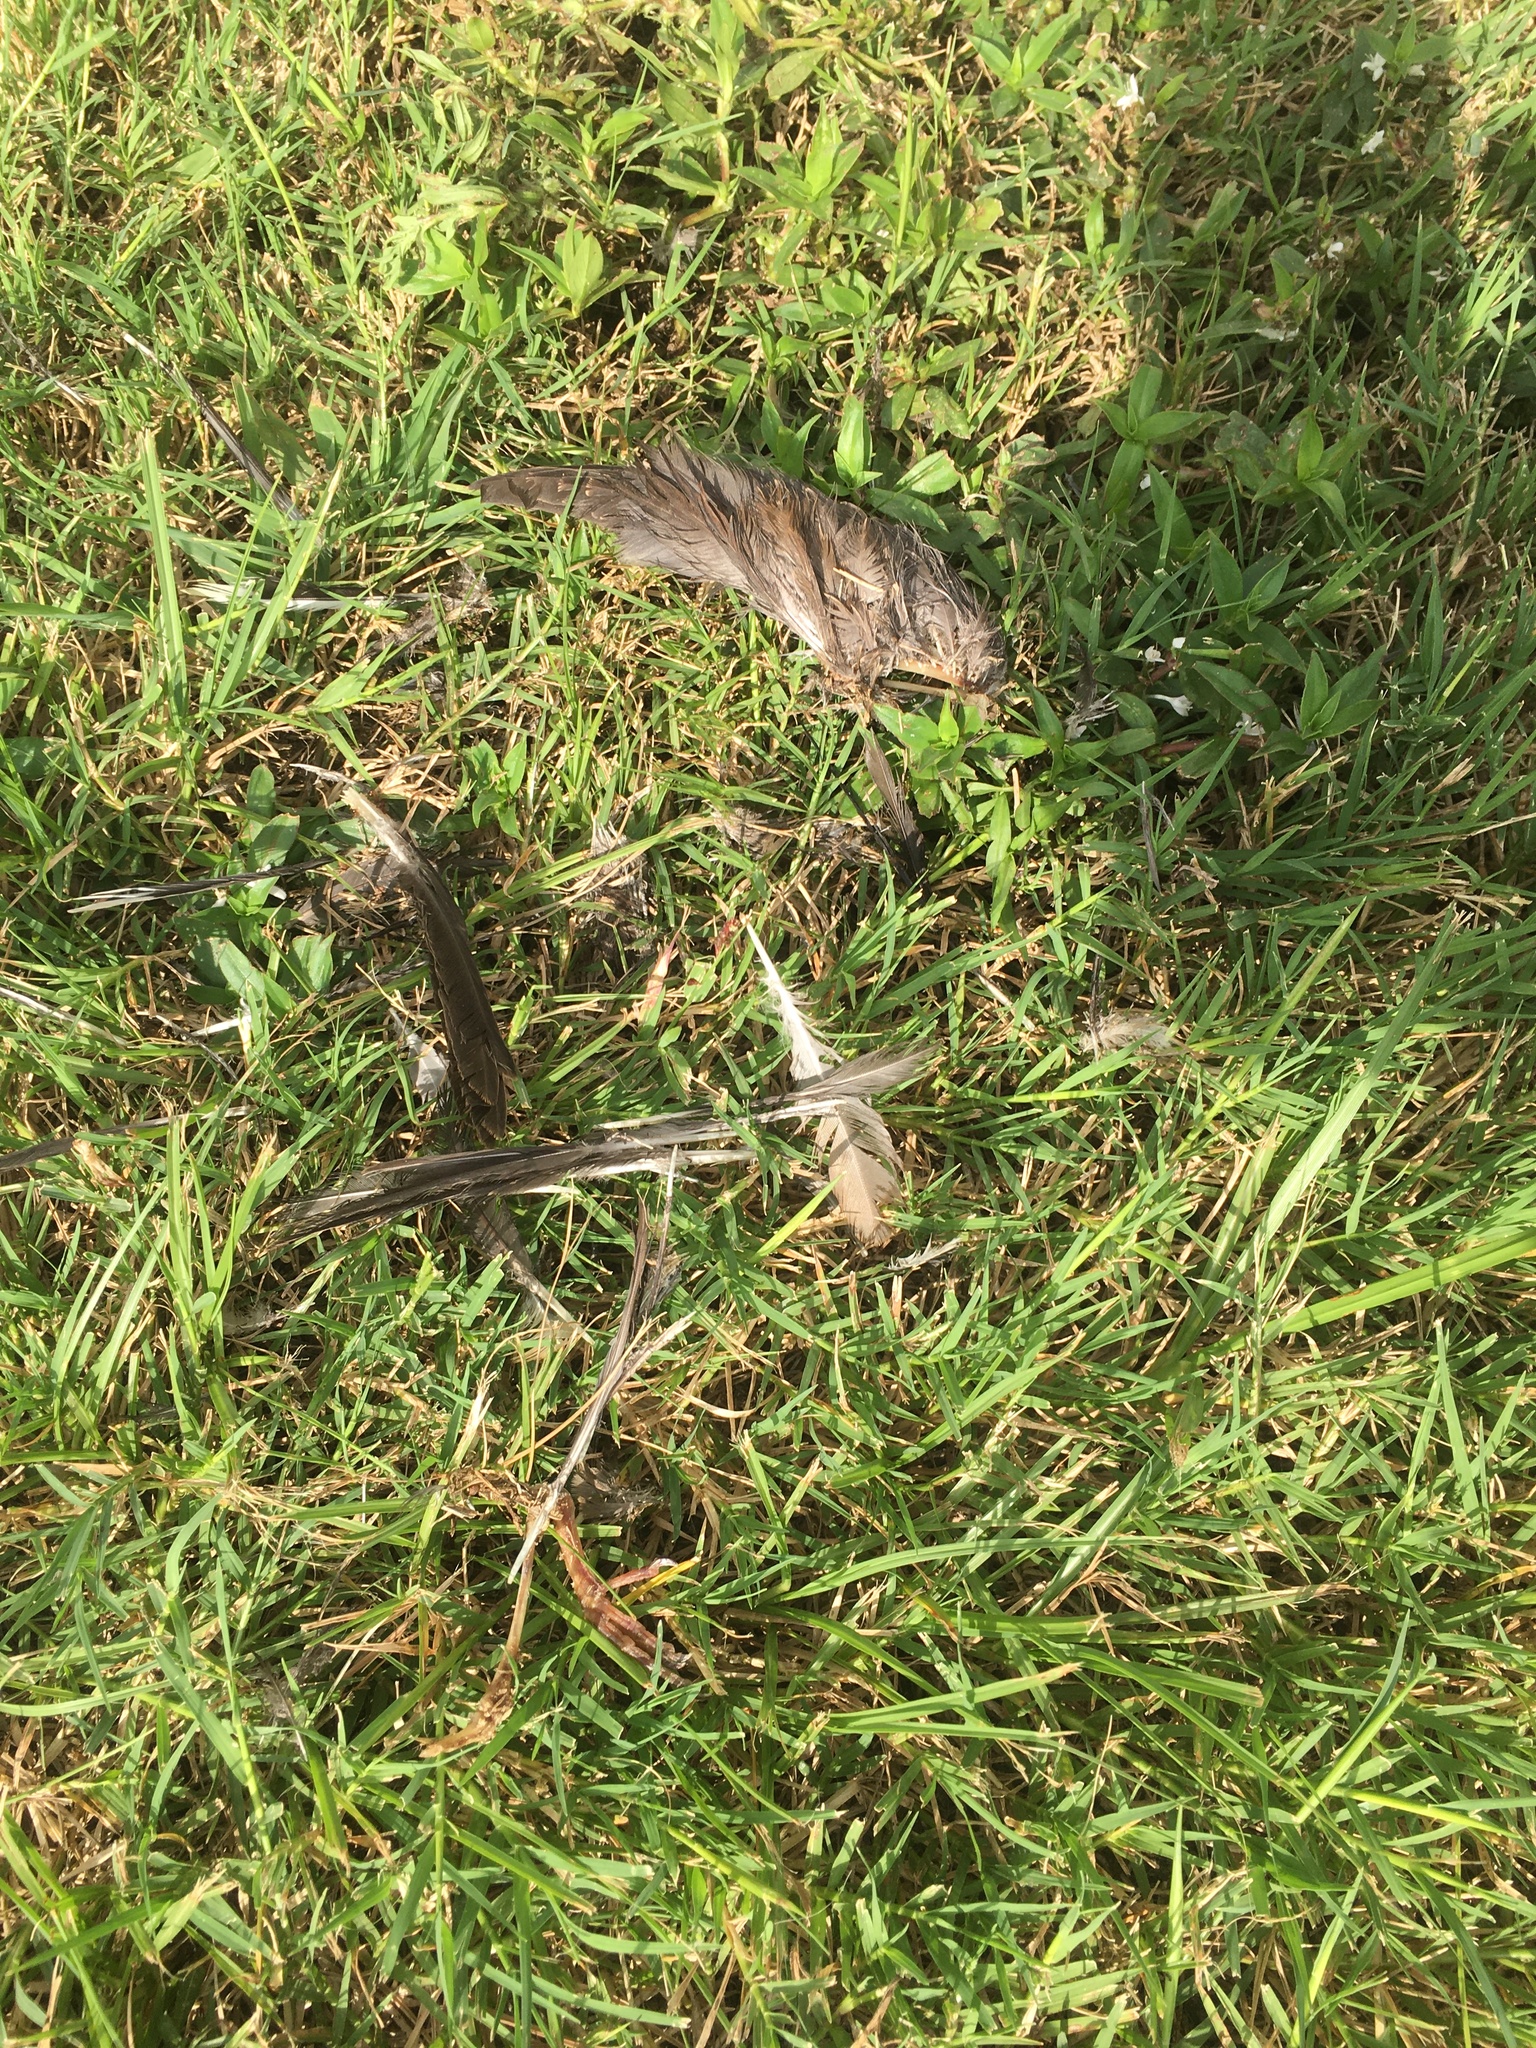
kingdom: Animalia
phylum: Chordata
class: Aves
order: Apodiformes
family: Apodidae
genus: Chaetura
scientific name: Chaetura pelagica
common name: Chimney swift
